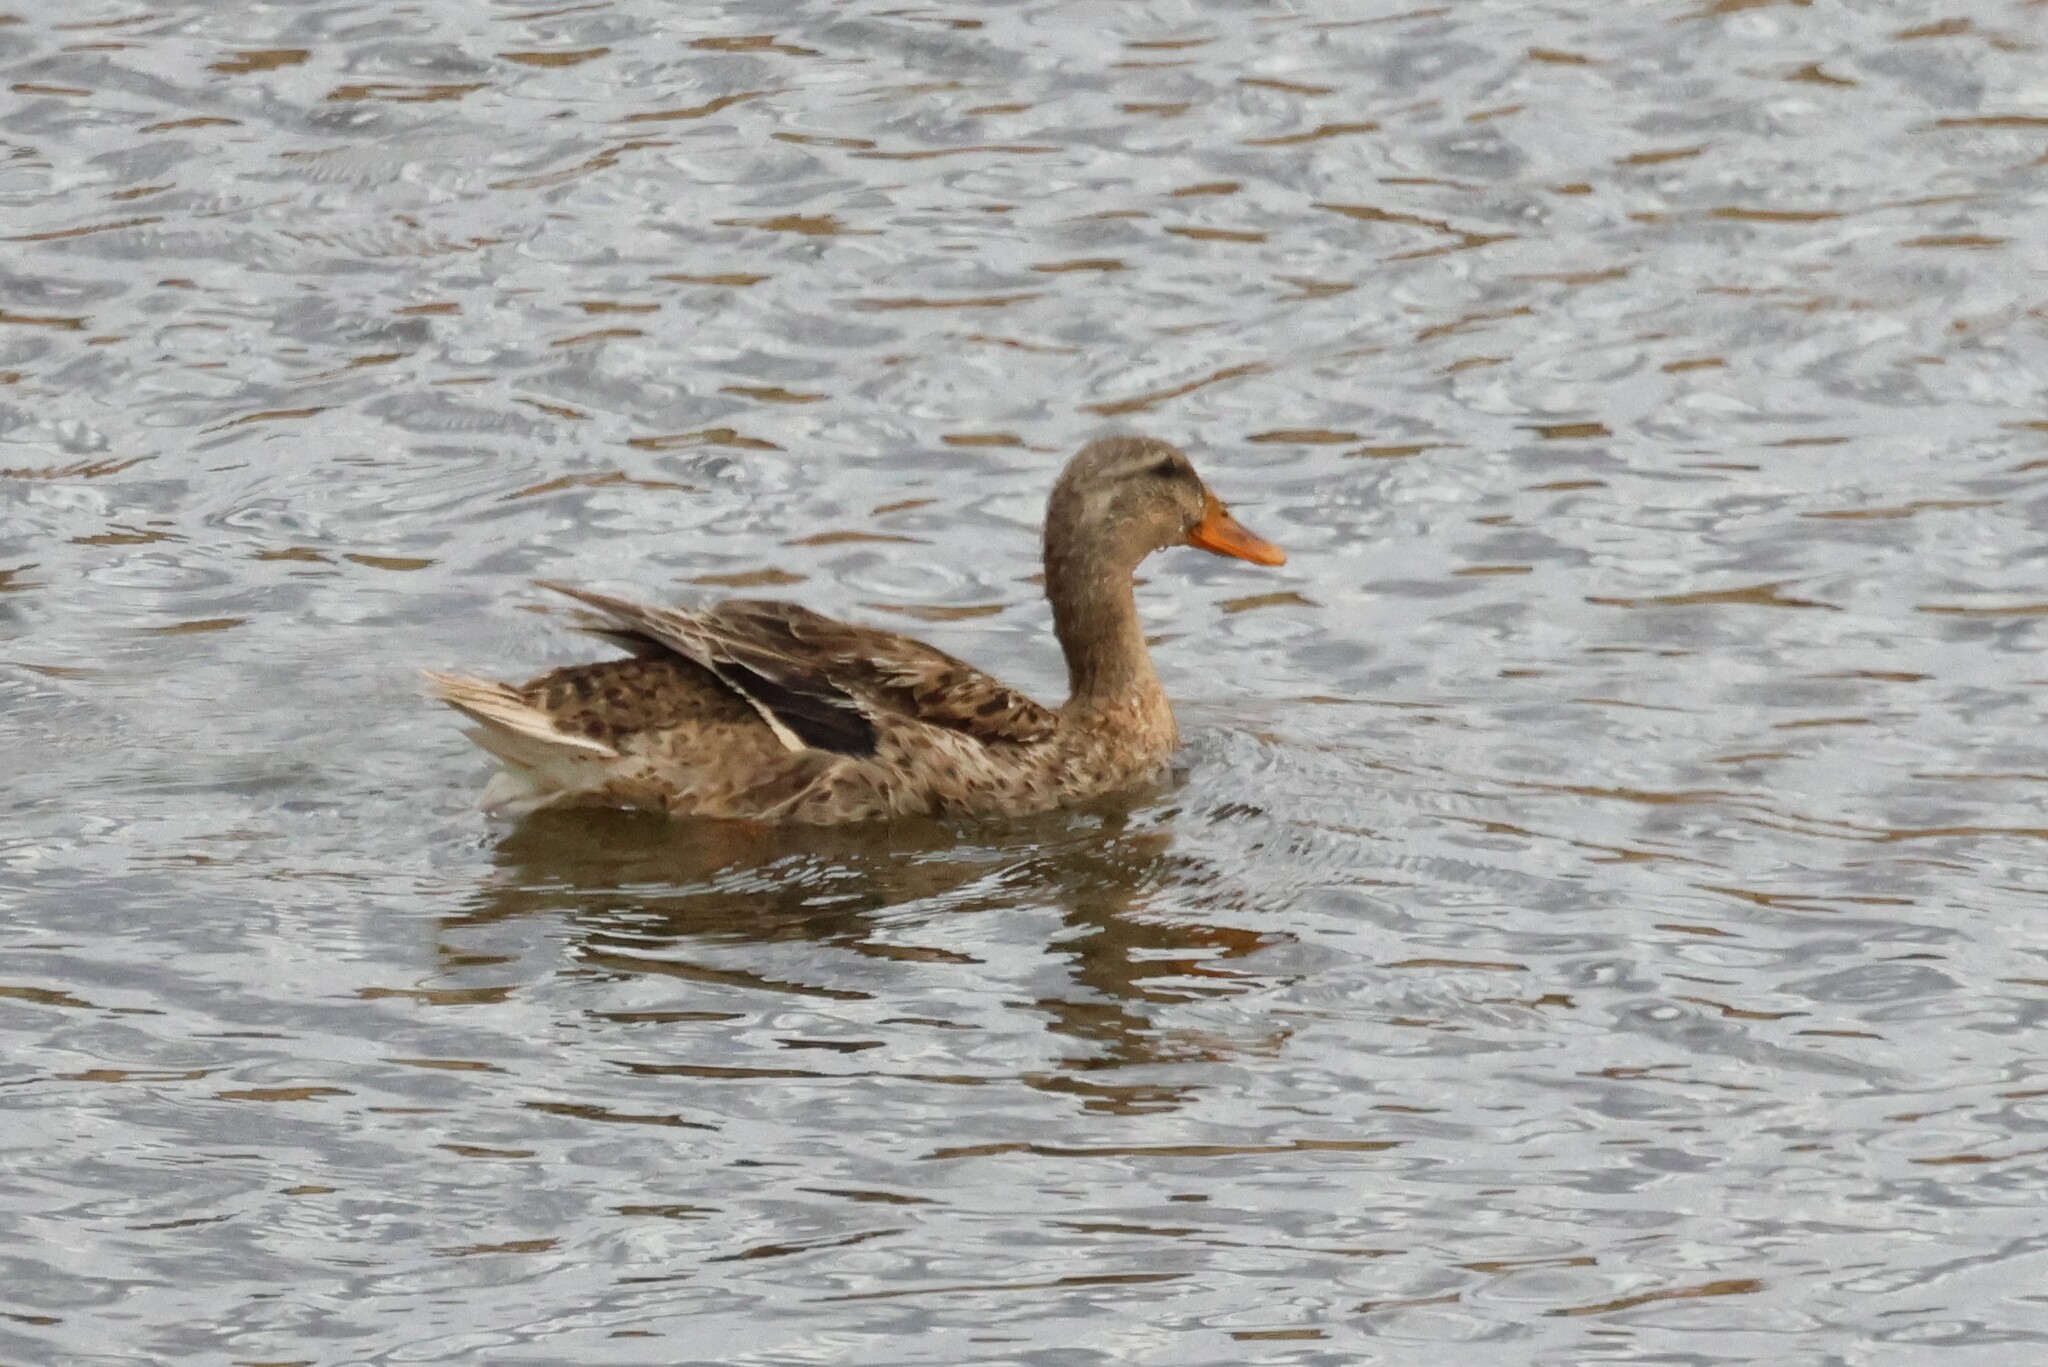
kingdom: Animalia
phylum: Chordata
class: Aves
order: Anseriformes
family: Anatidae
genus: Anas
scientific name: Anas platyrhynchos
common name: Mallard
